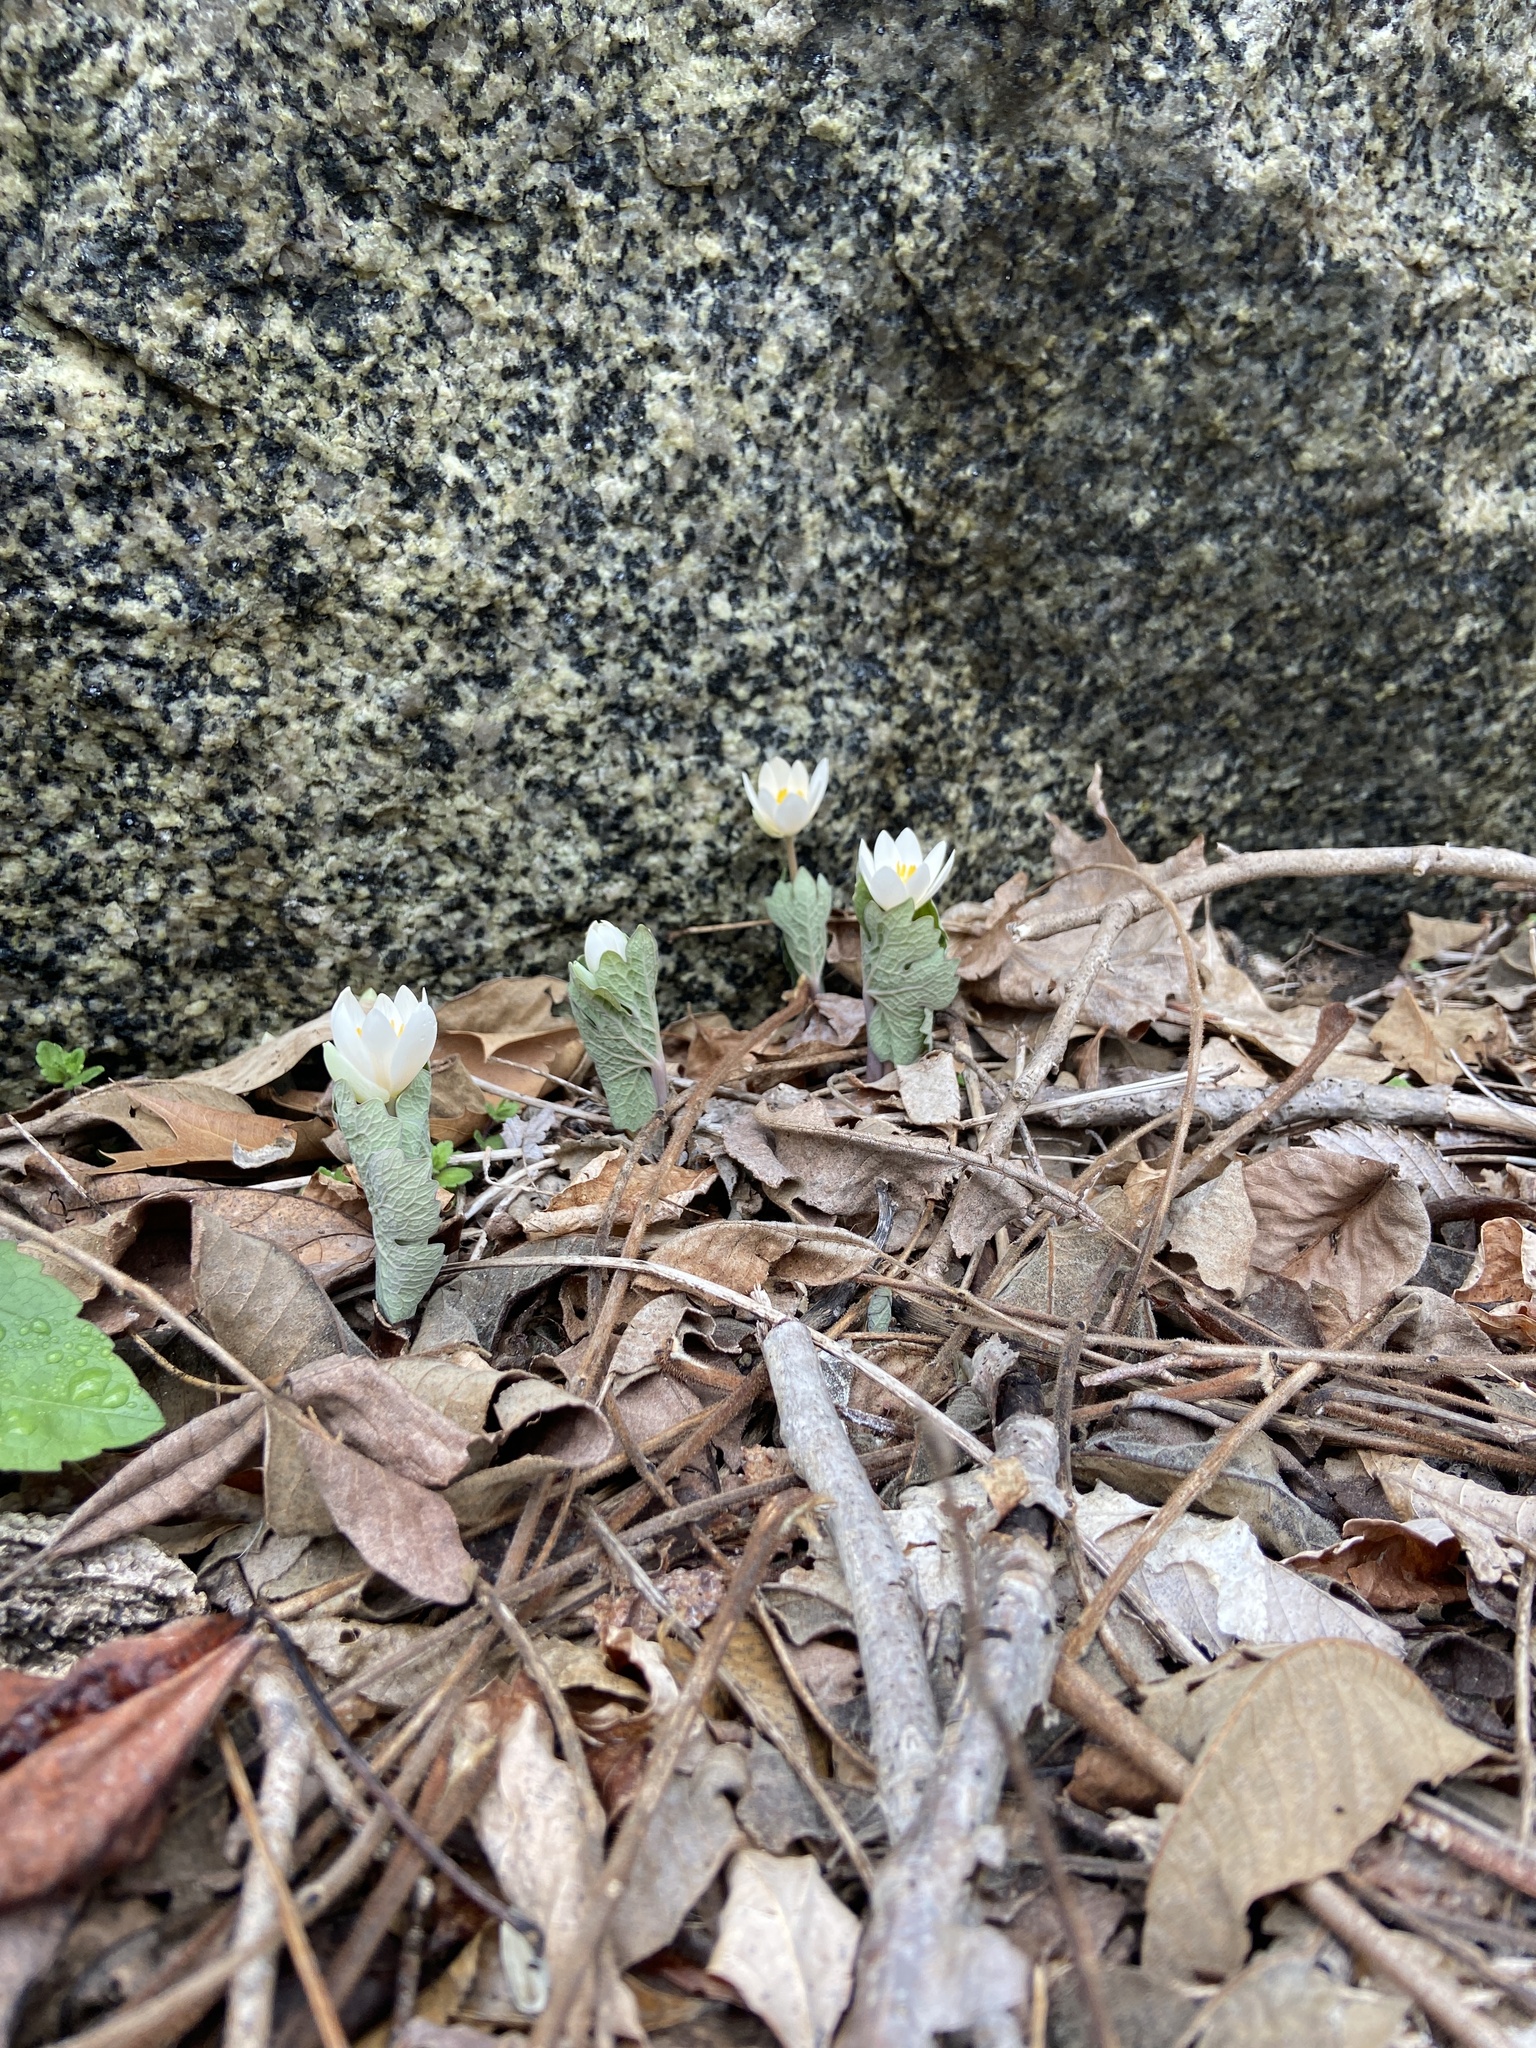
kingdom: Plantae
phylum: Tracheophyta
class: Magnoliopsida
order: Ranunculales
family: Papaveraceae
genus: Sanguinaria
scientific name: Sanguinaria canadensis
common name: Bloodroot
